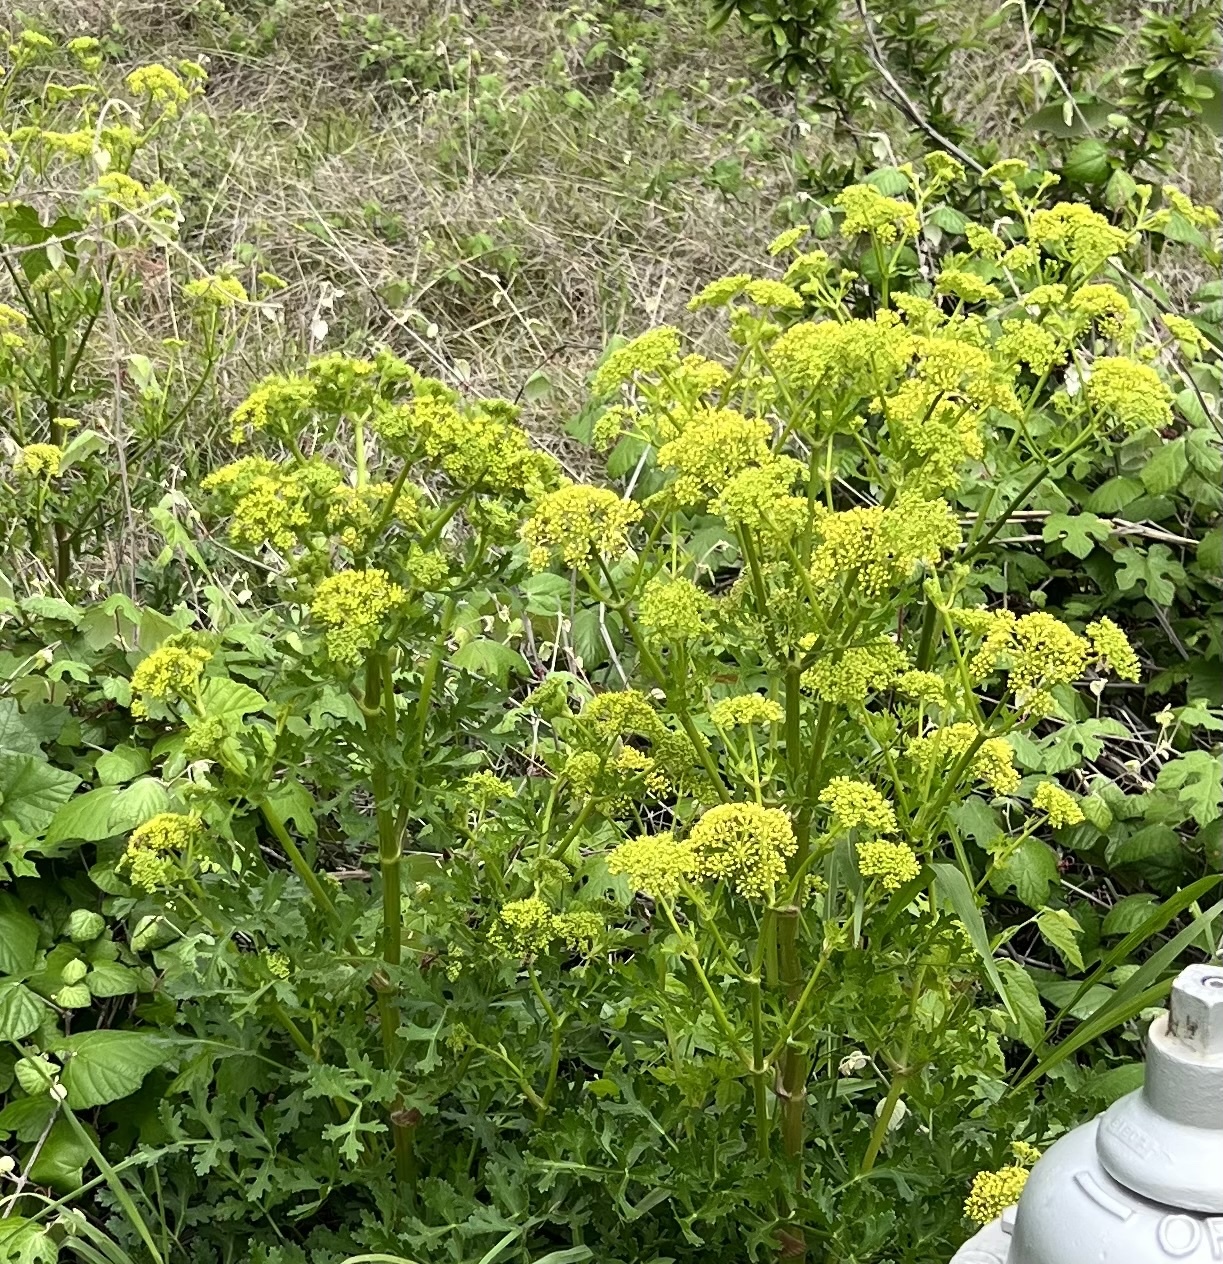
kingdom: Animalia
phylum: Arthropoda
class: Insecta
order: Lepidoptera
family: Papilionidae
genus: Papilio
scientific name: Papilio polyxenes
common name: Black swallowtail
